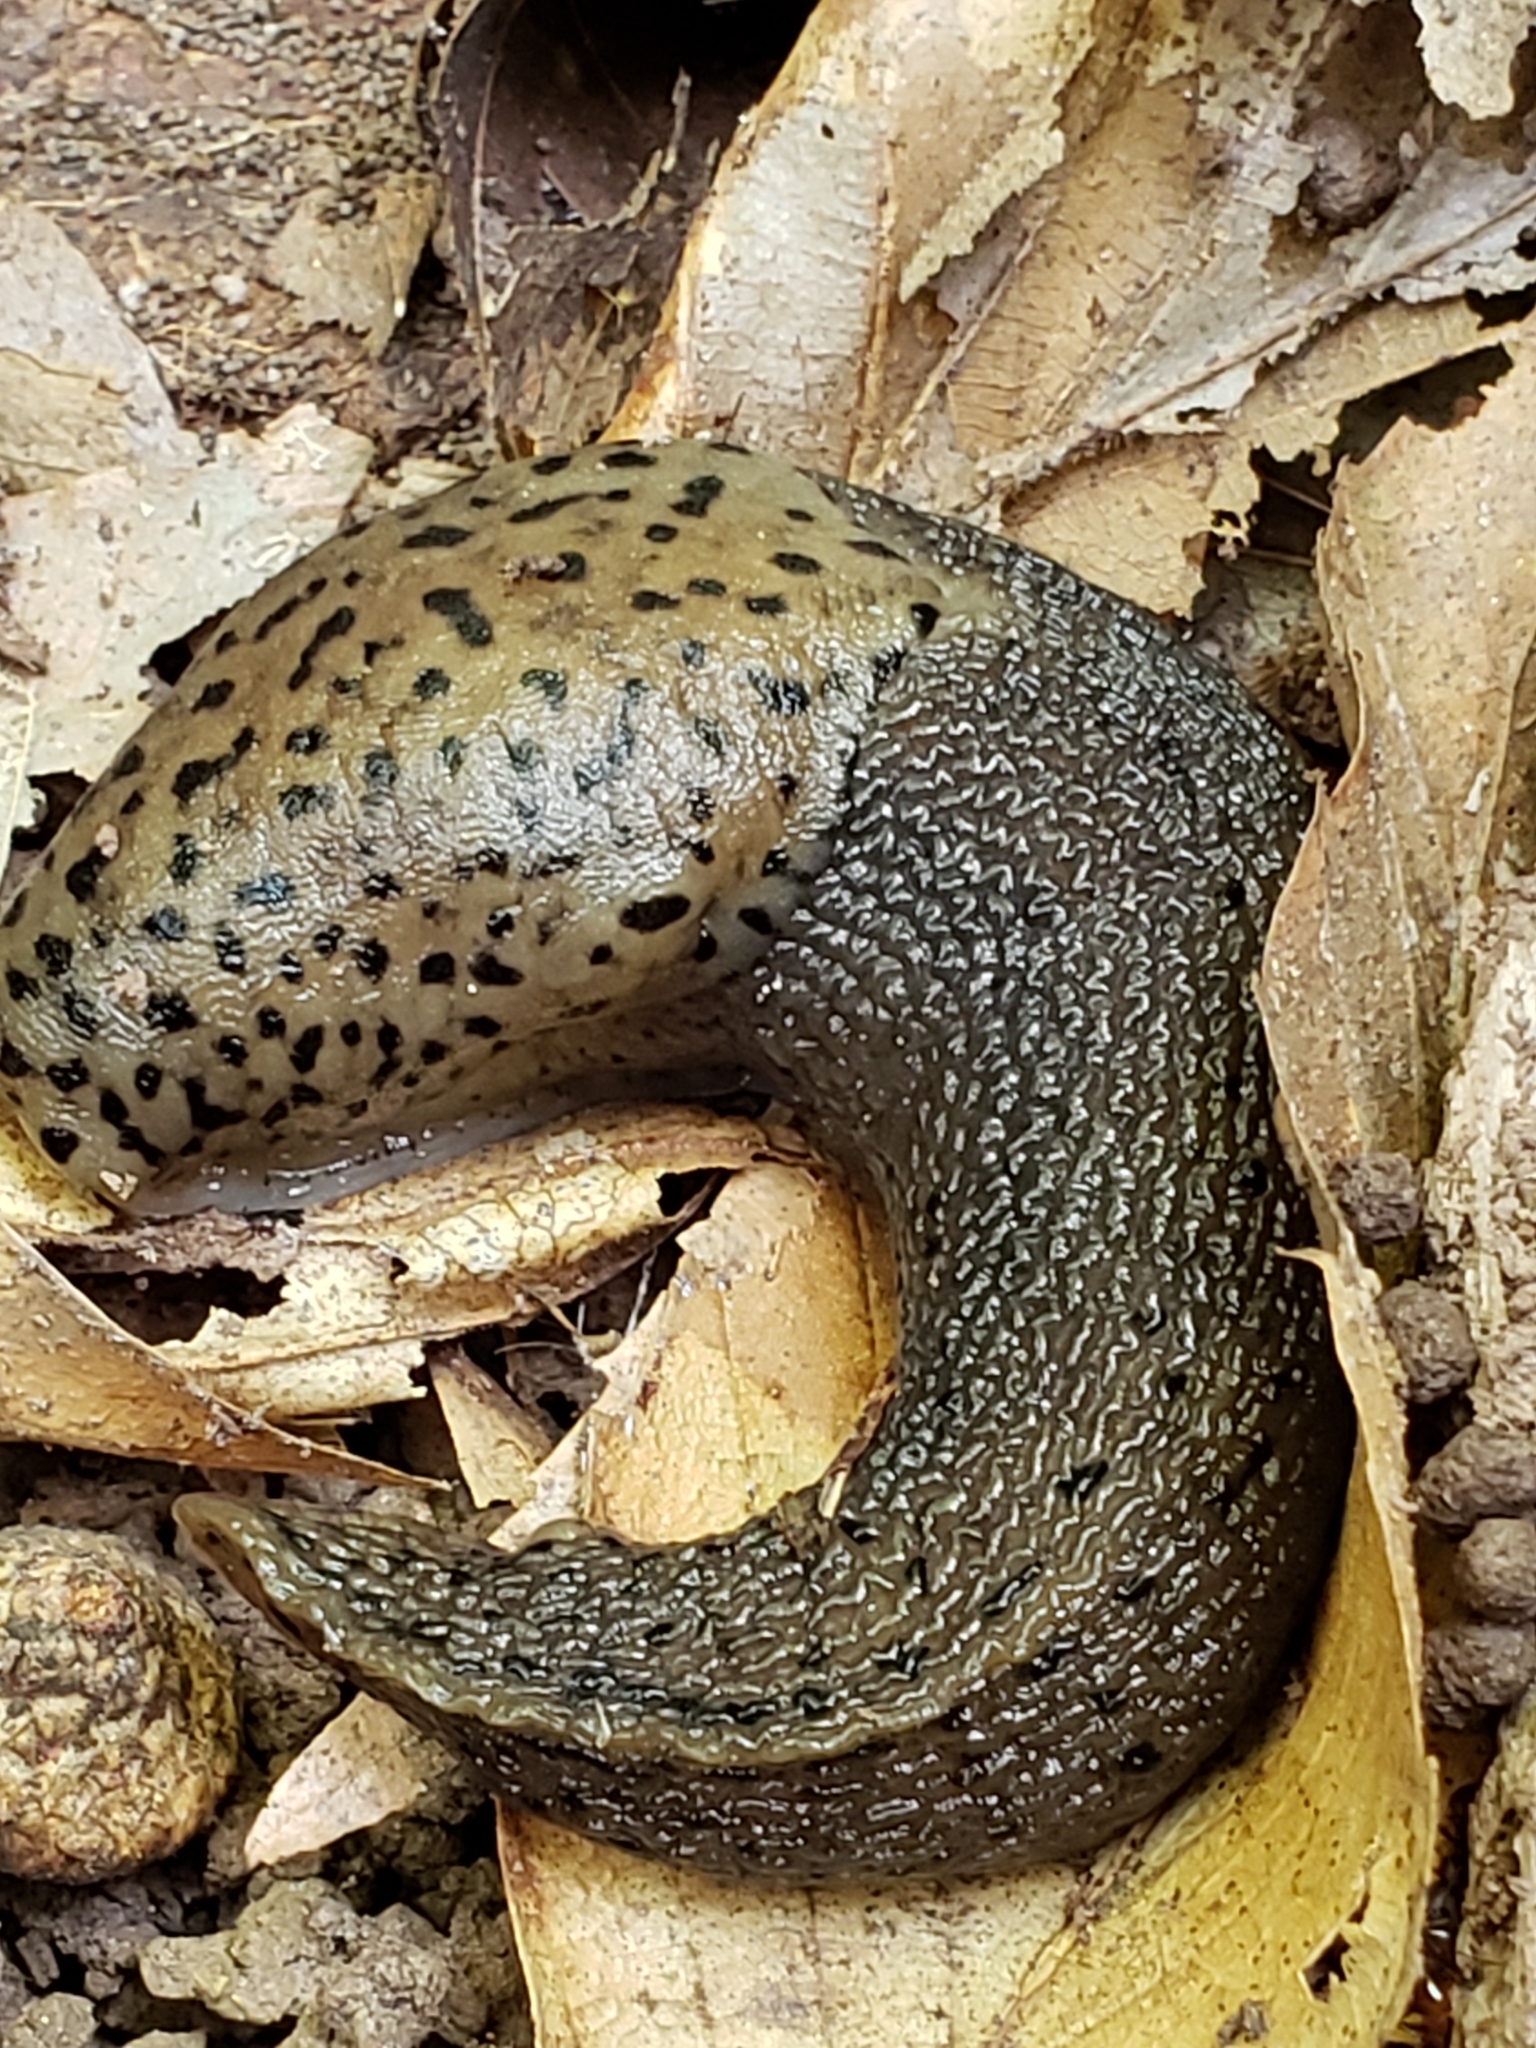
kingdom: Animalia
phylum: Mollusca
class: Gastropoda
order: Stylommatophora
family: Limacidae
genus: Limax
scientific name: Limax maximus
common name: Great grey slug
